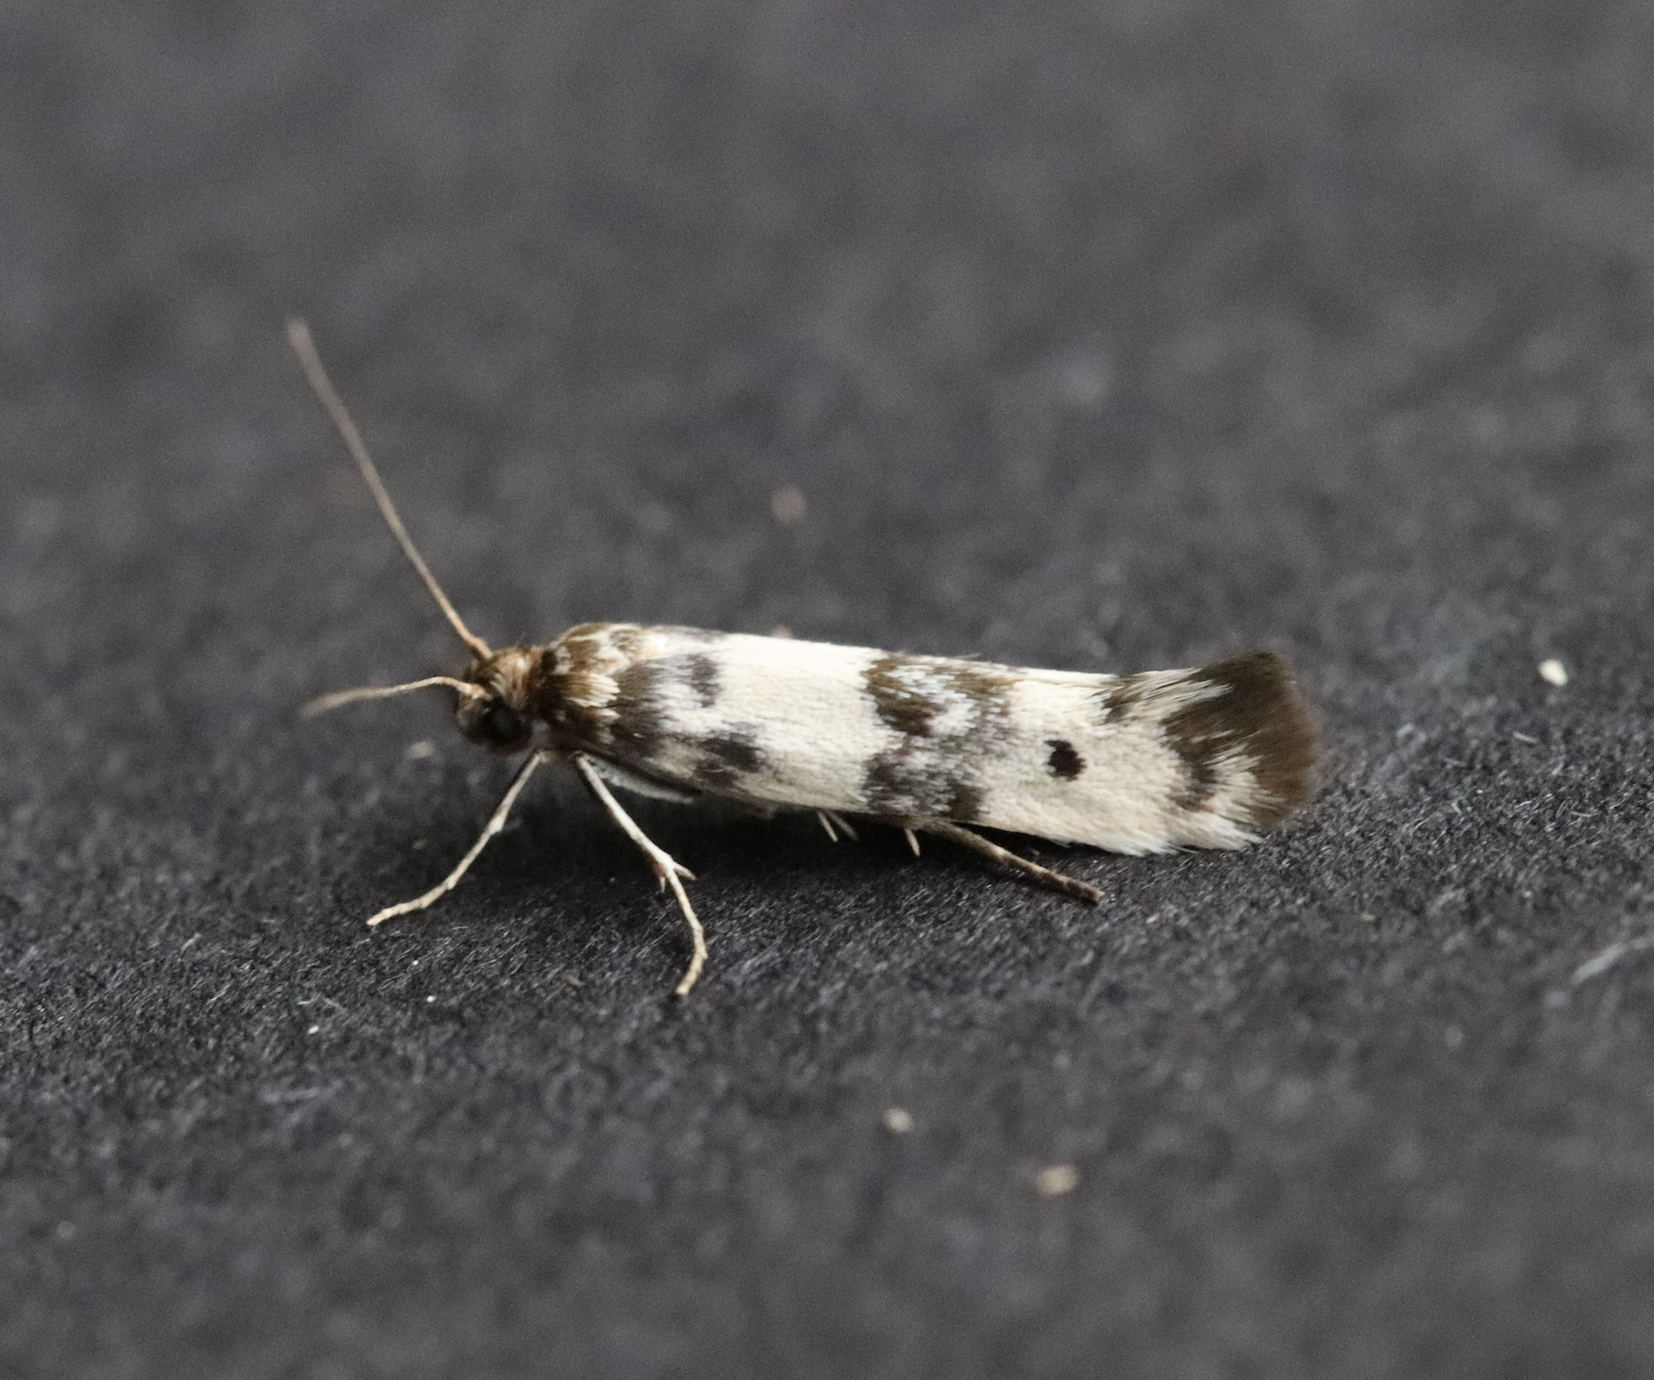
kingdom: Animalia
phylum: Arthropoda
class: Insecta
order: Lepidoptera
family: Scythrididae
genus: Enolmis
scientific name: Enolmis acanthella
